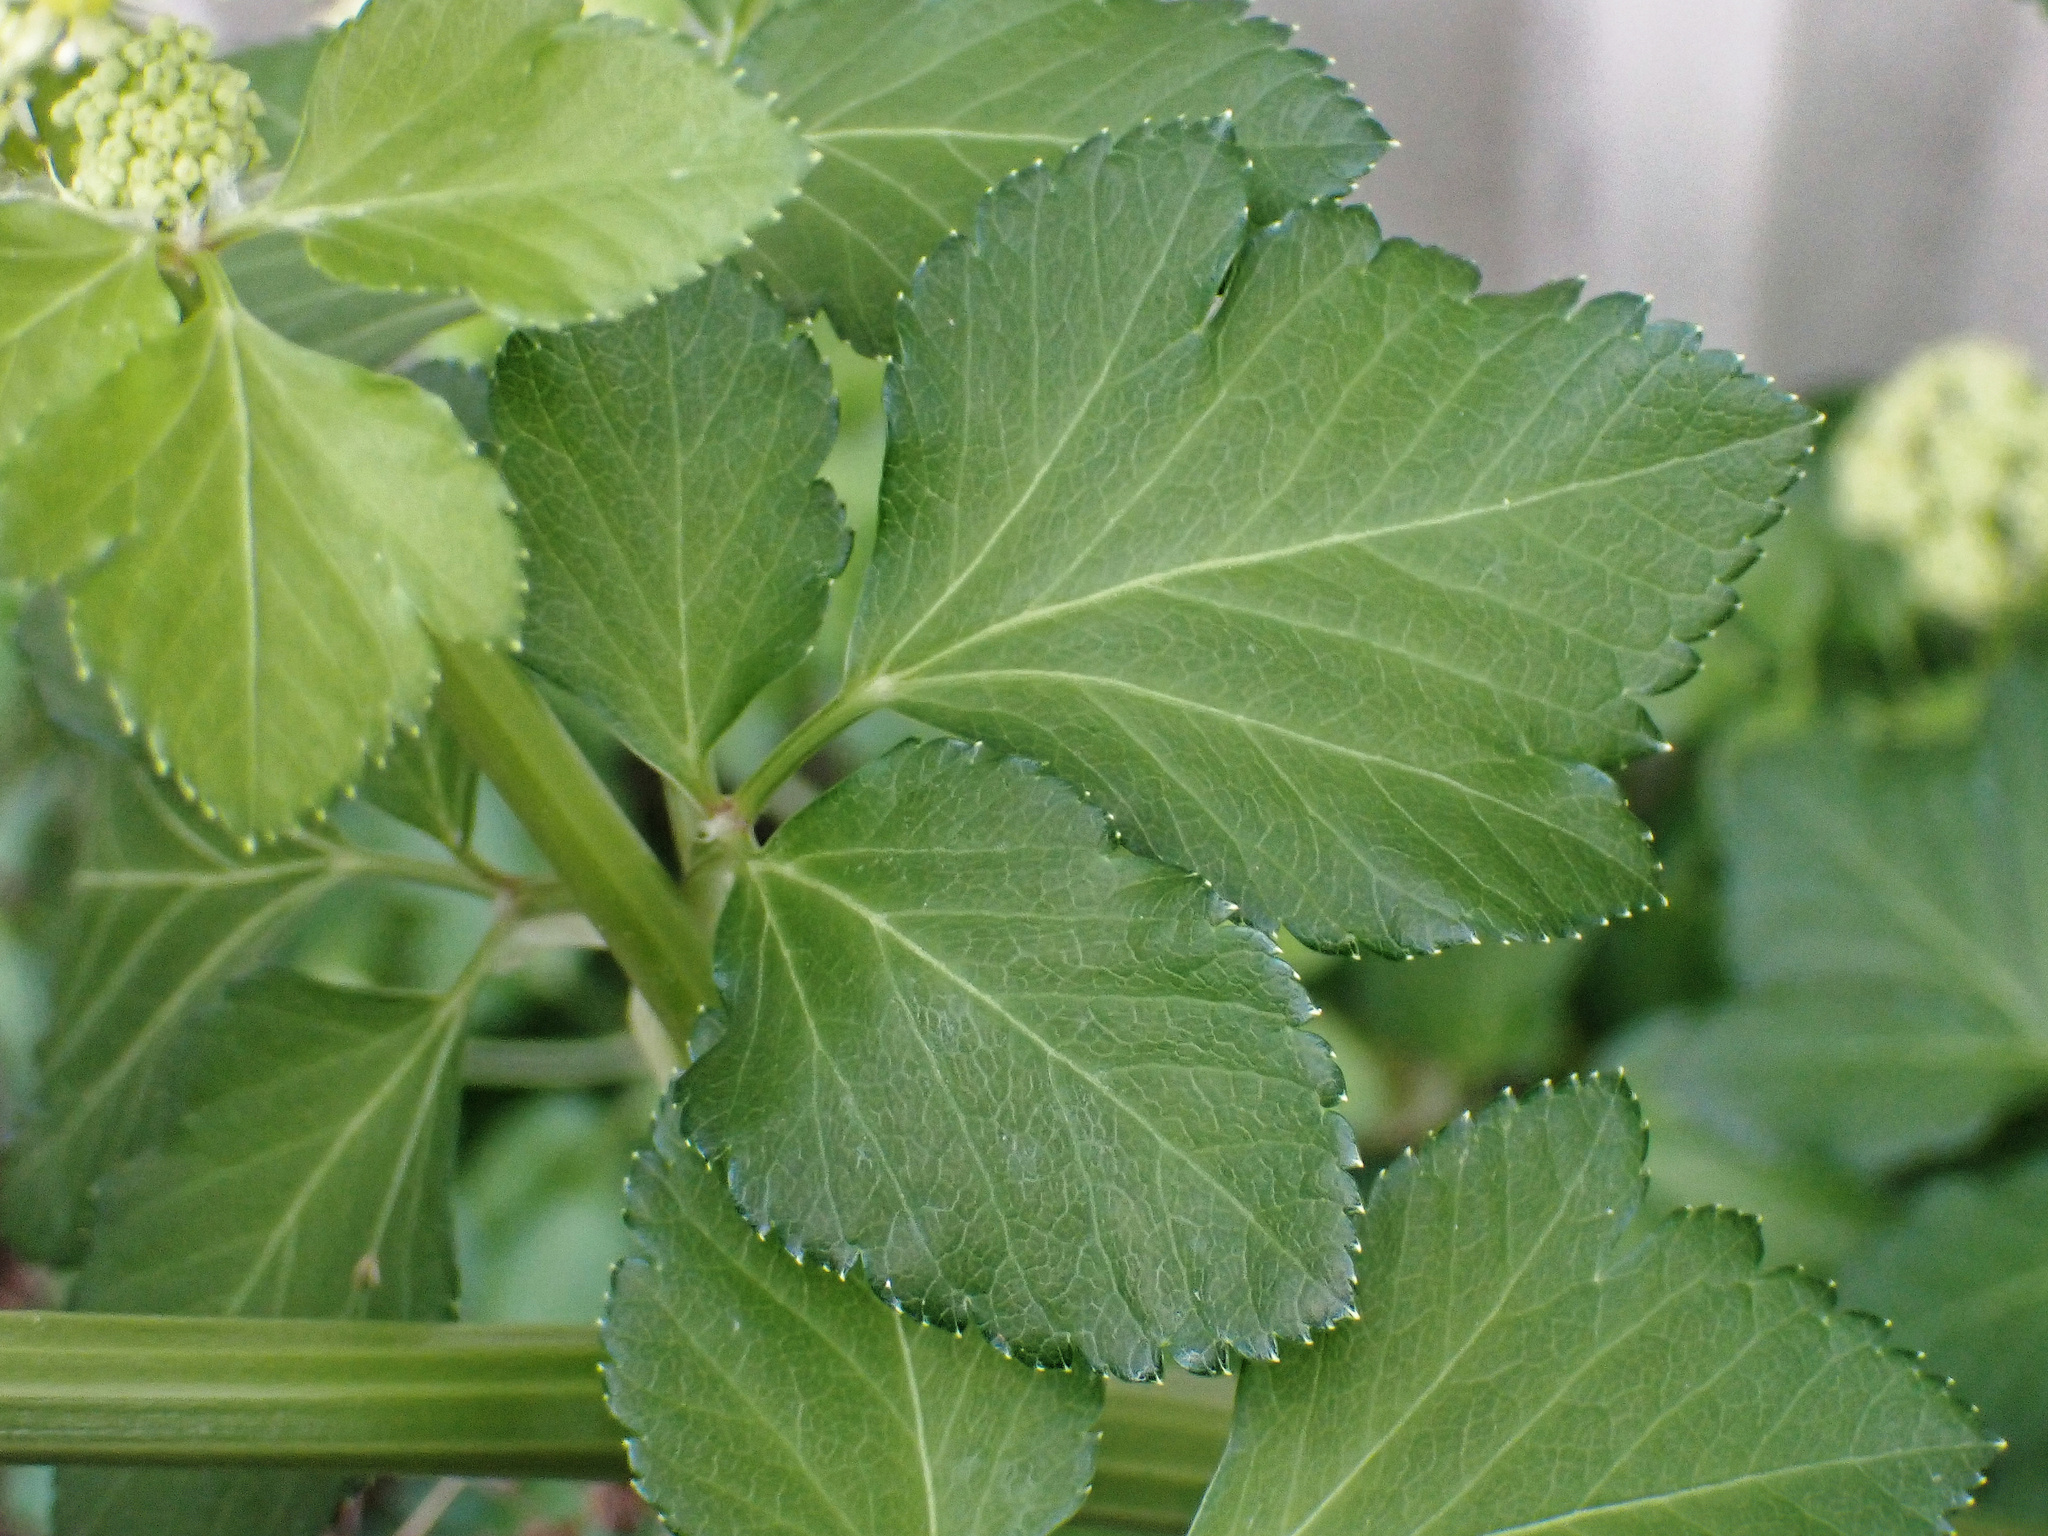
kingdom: Plantae
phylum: Tracheophyta
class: Magnoliopsida
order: Apiales
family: Apiaceae
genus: Smyrnium
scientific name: Smyrnium olusatrum
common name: Alexanders
